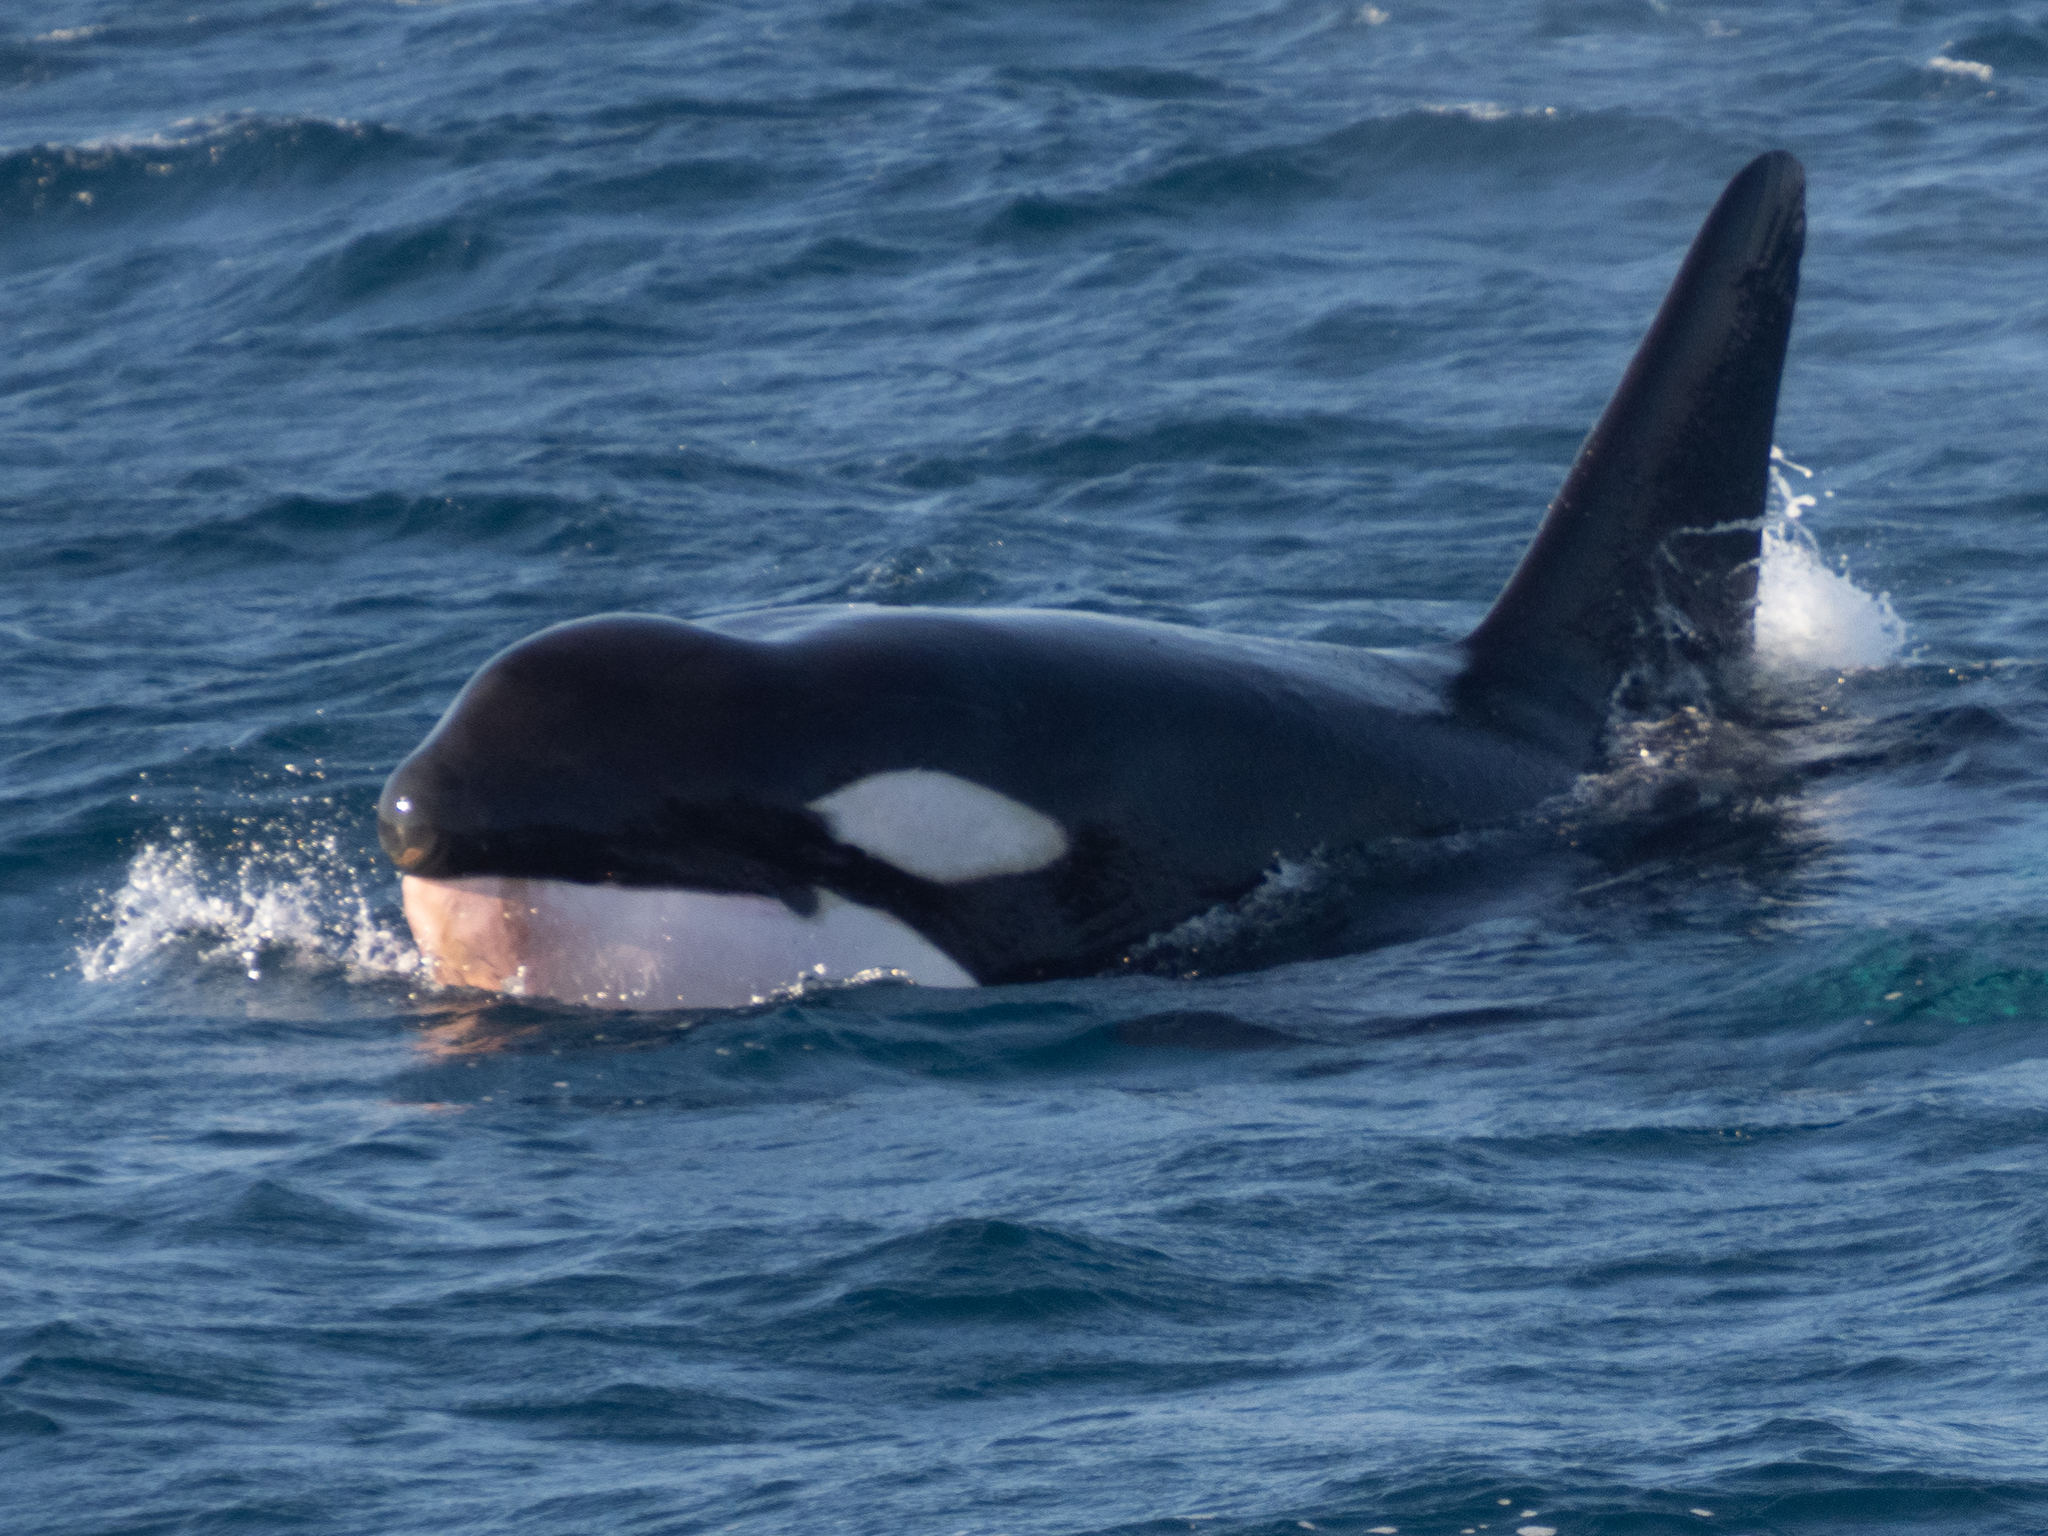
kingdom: Animalia
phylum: Chordata
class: Mammalia
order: Cetacea
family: Delphinidae
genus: Orcinus
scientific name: Orcinus orca
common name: Killer whale
